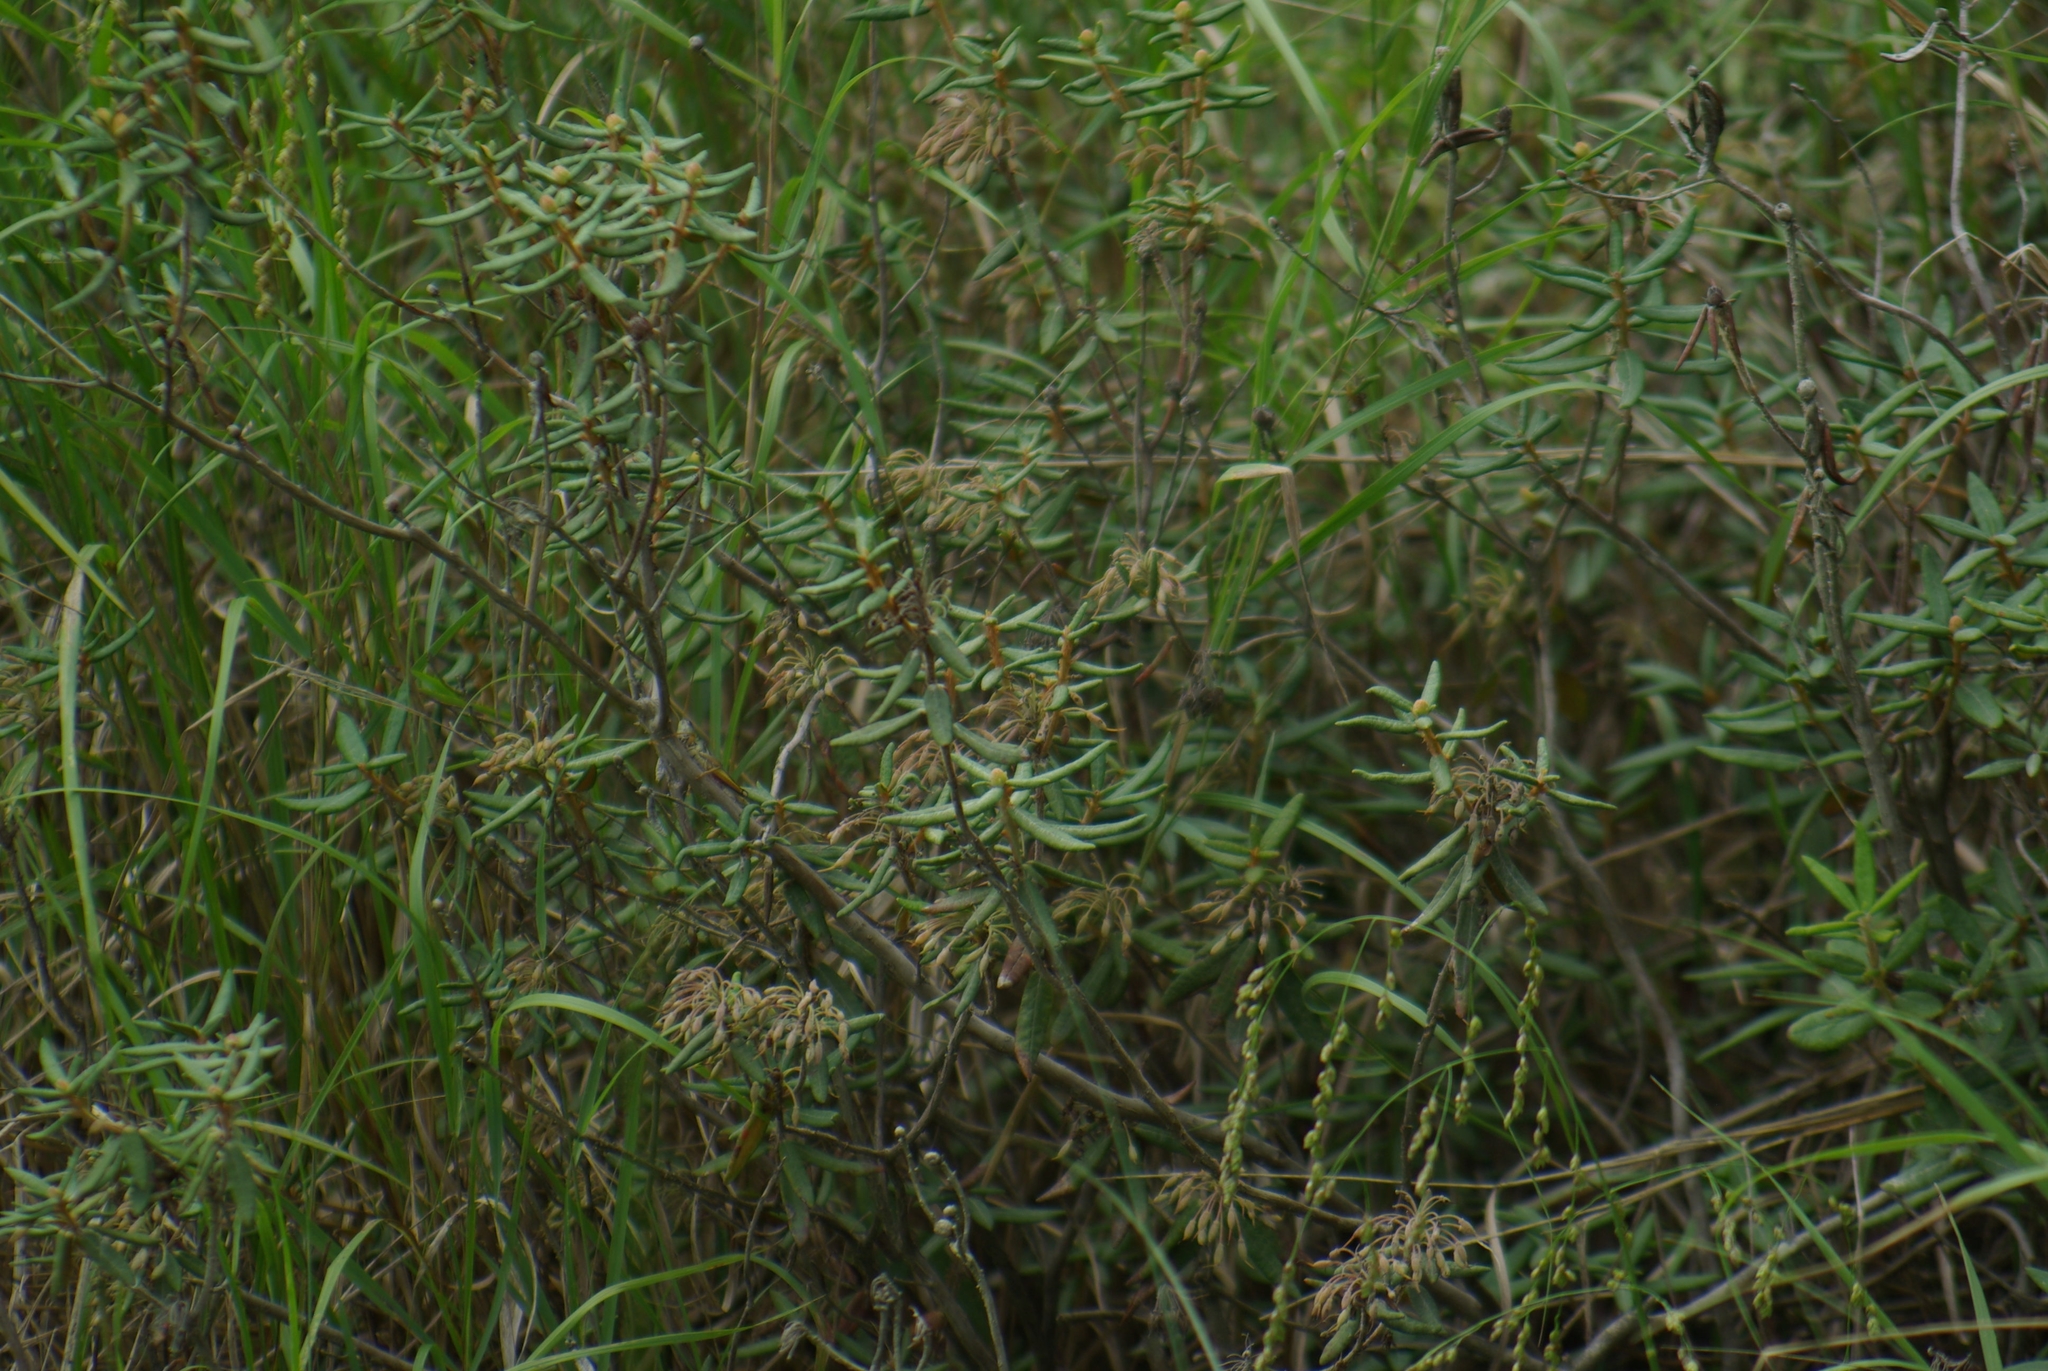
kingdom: Plantae
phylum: Tracheophyta
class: Magnoliopsida
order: Ericales
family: Ericaceae
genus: Rhododendron
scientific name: Rhododendron groenlandicum
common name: Bog labrador tea
